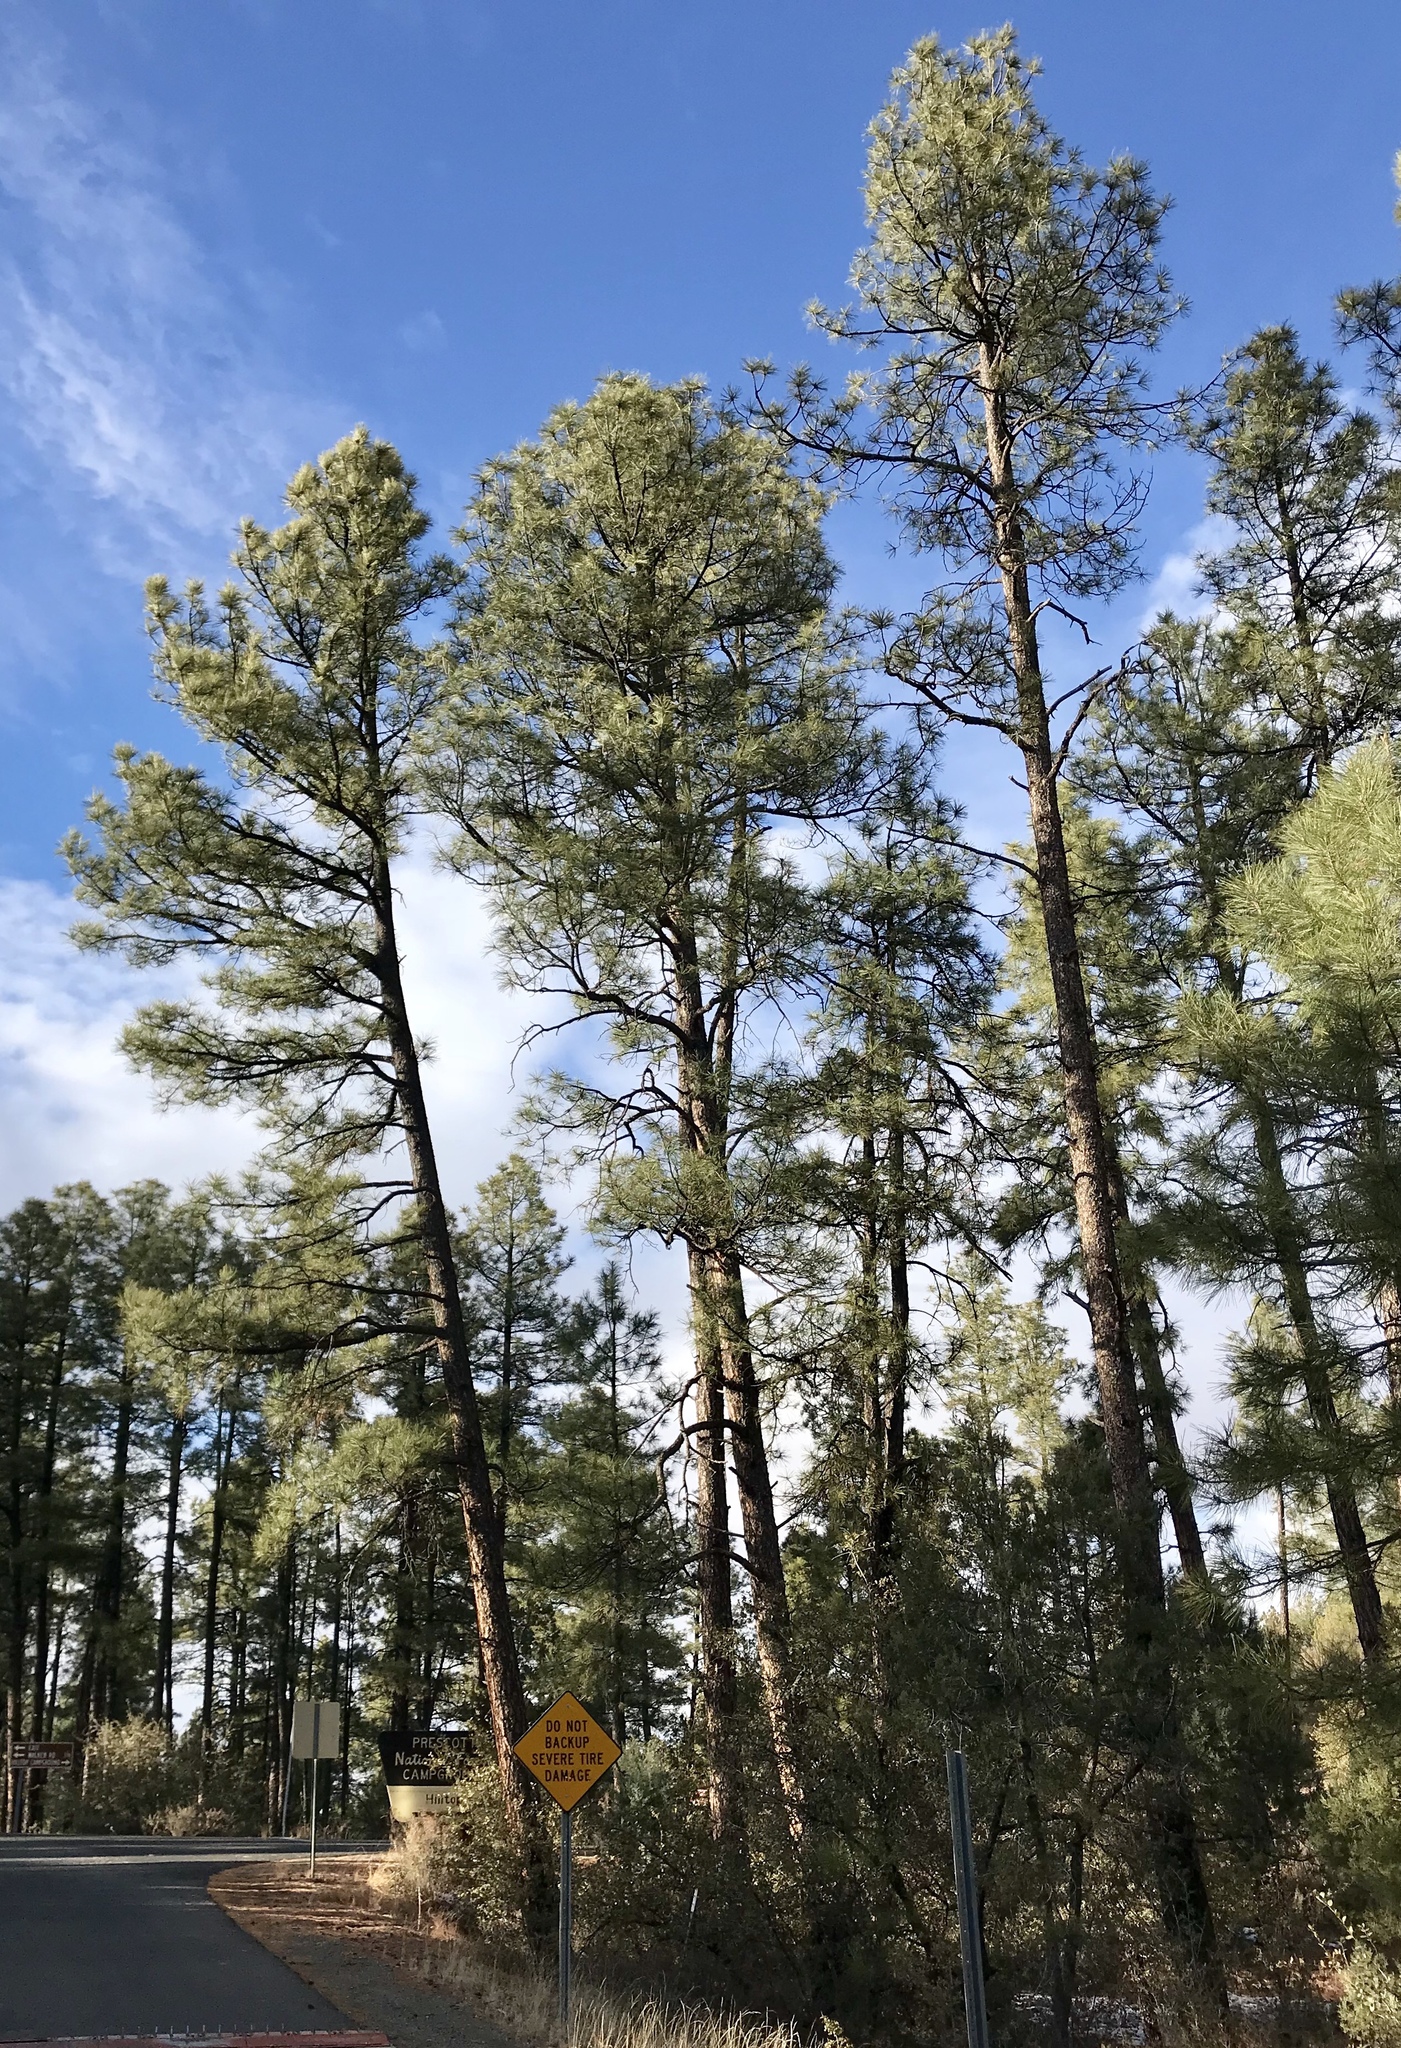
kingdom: Plantae
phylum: Tracheophyta
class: Pinopsida
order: Pinales
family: Pinaceae
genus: Pinus
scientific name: Pinus ponderosa
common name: Western yellow-pine
